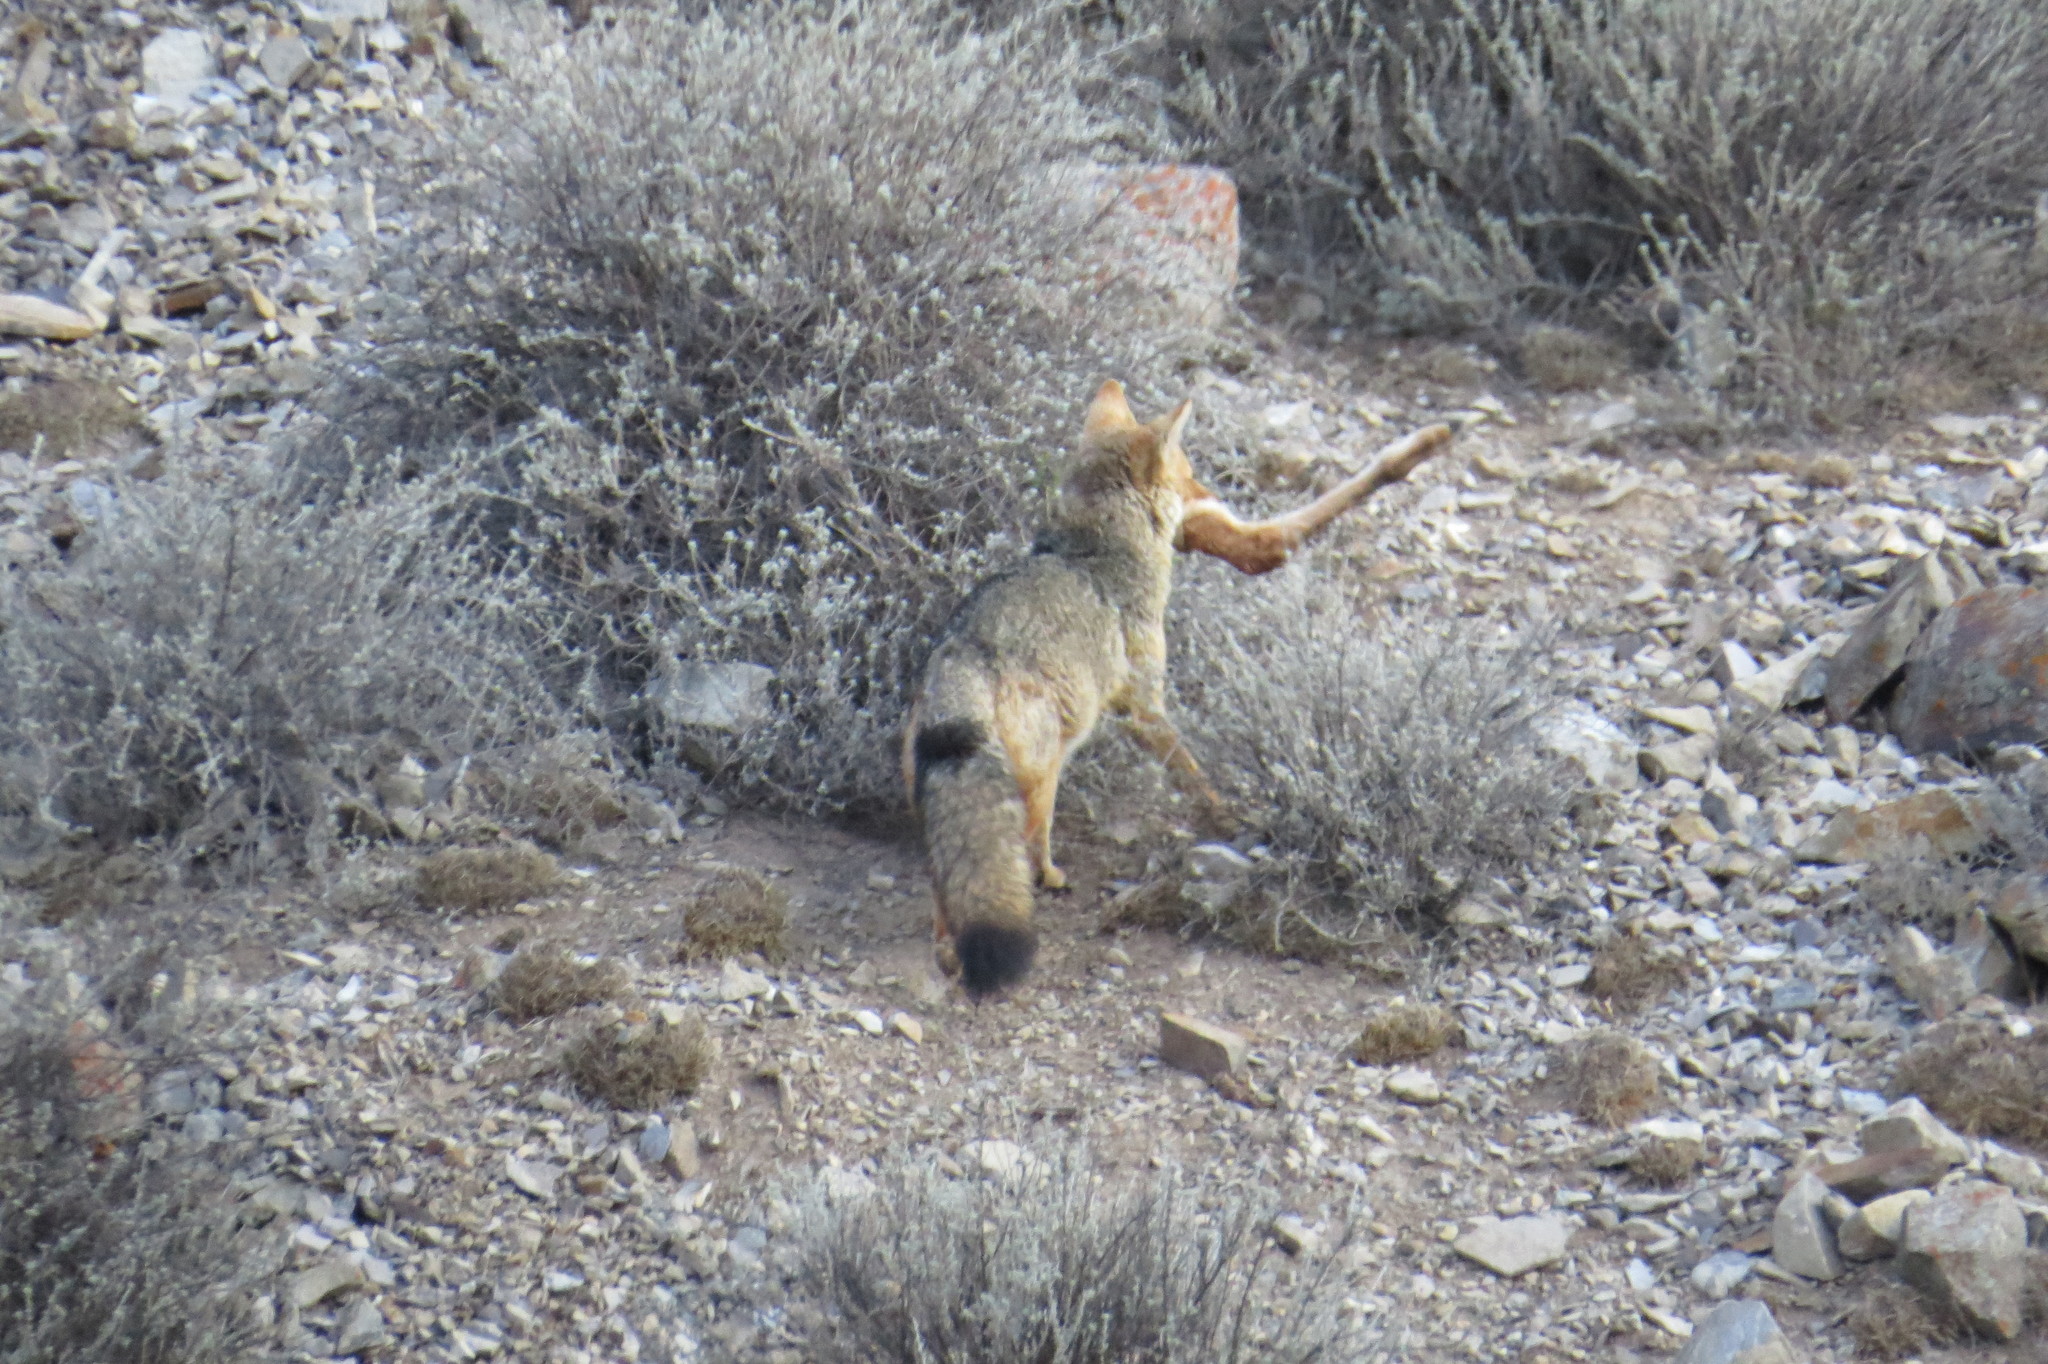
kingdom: Animalia
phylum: Chordata
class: Mammalia
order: Carnivora
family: Canidae
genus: Lycalopex
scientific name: Lycalopex culpaeus
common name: Culpeo
